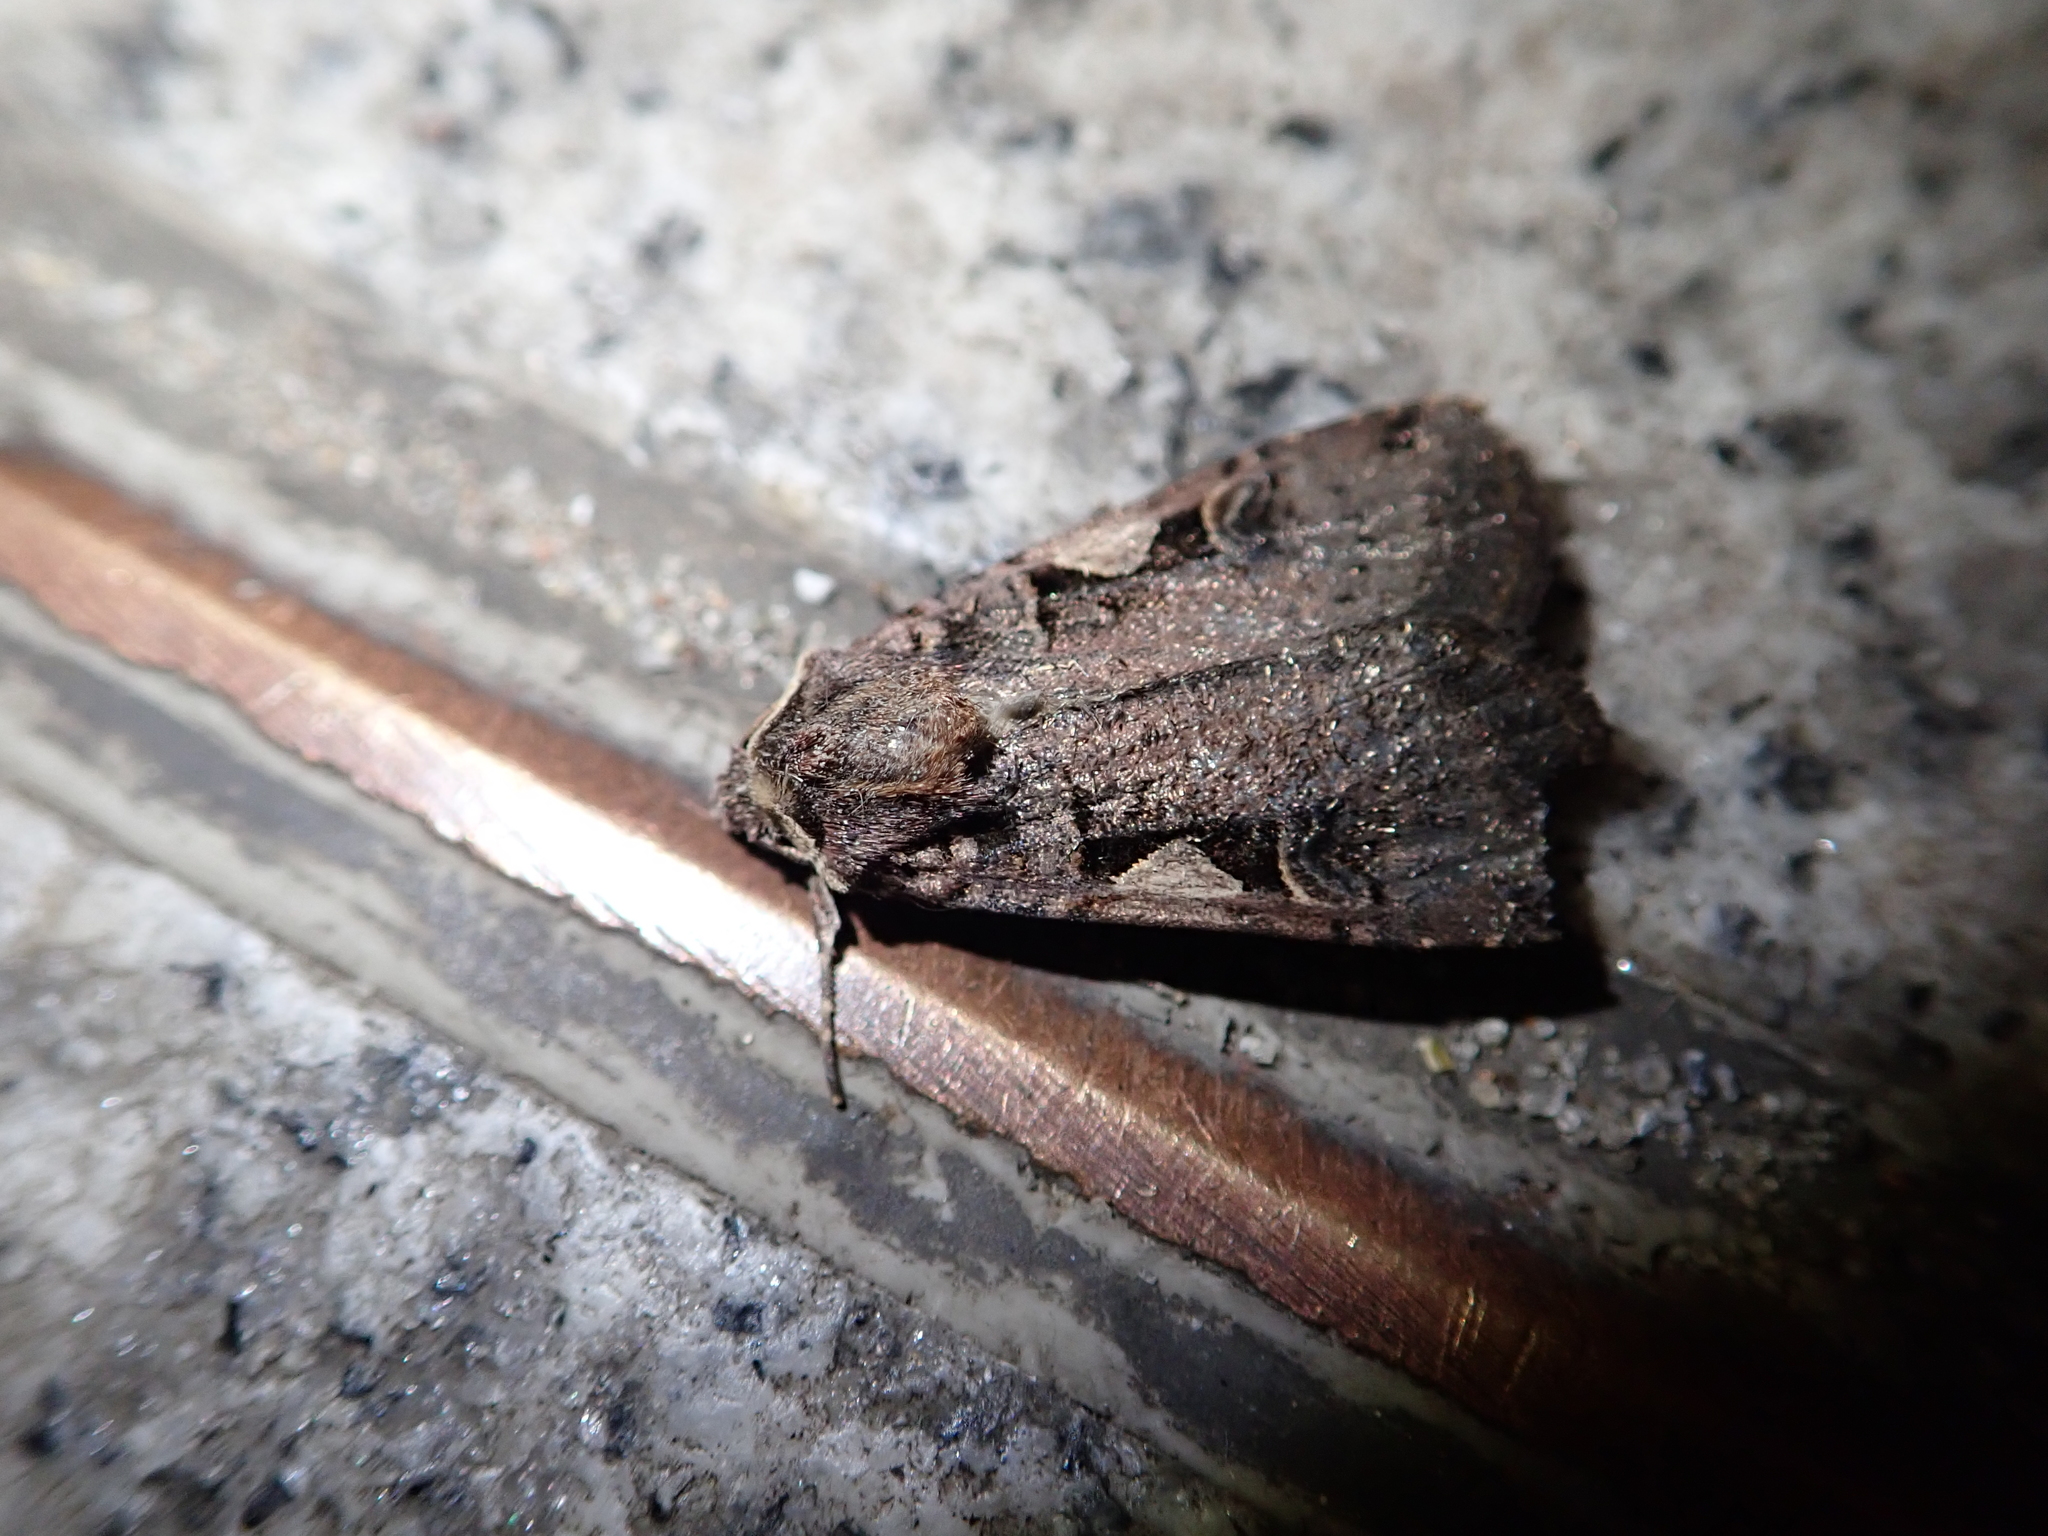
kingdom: Animalia
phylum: Arthropoda
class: Insecta
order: Lepidoptera
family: Noctuidae
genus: Xestia
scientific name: Xestia c-nigrum
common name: Setaceous hebrew character
